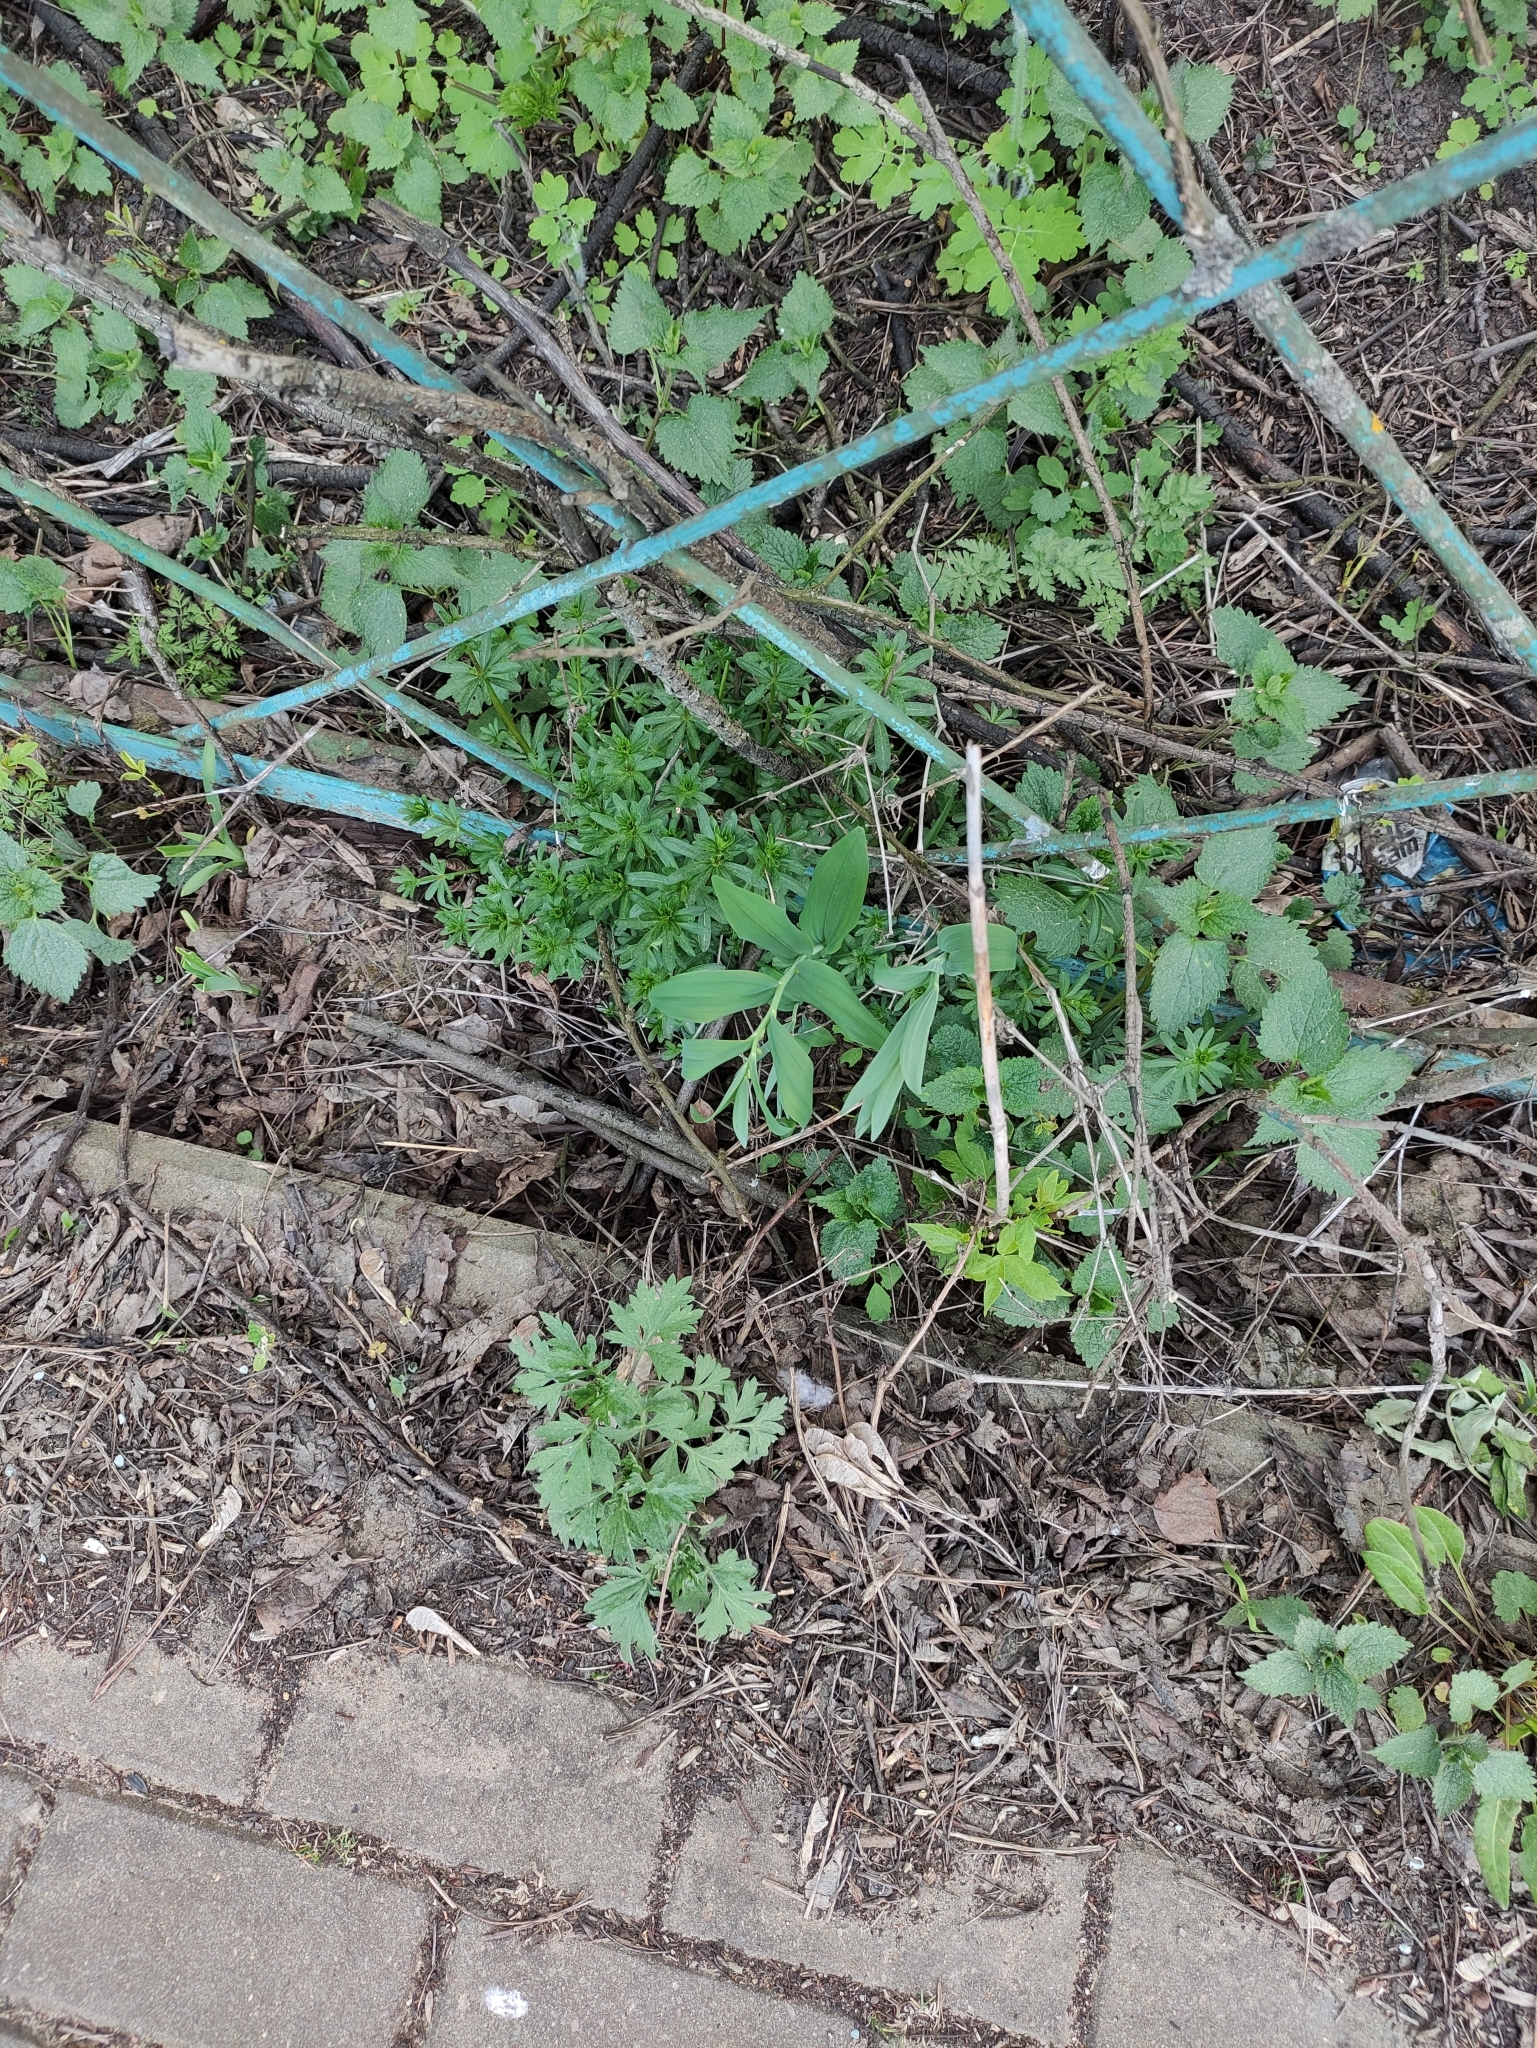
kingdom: Plantae
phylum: Tracheophyta
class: Liliopsida
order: Asparagales
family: Asparagaceae
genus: Polygonatum
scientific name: Polygonatum odoratum
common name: Angular solomon's-seal
